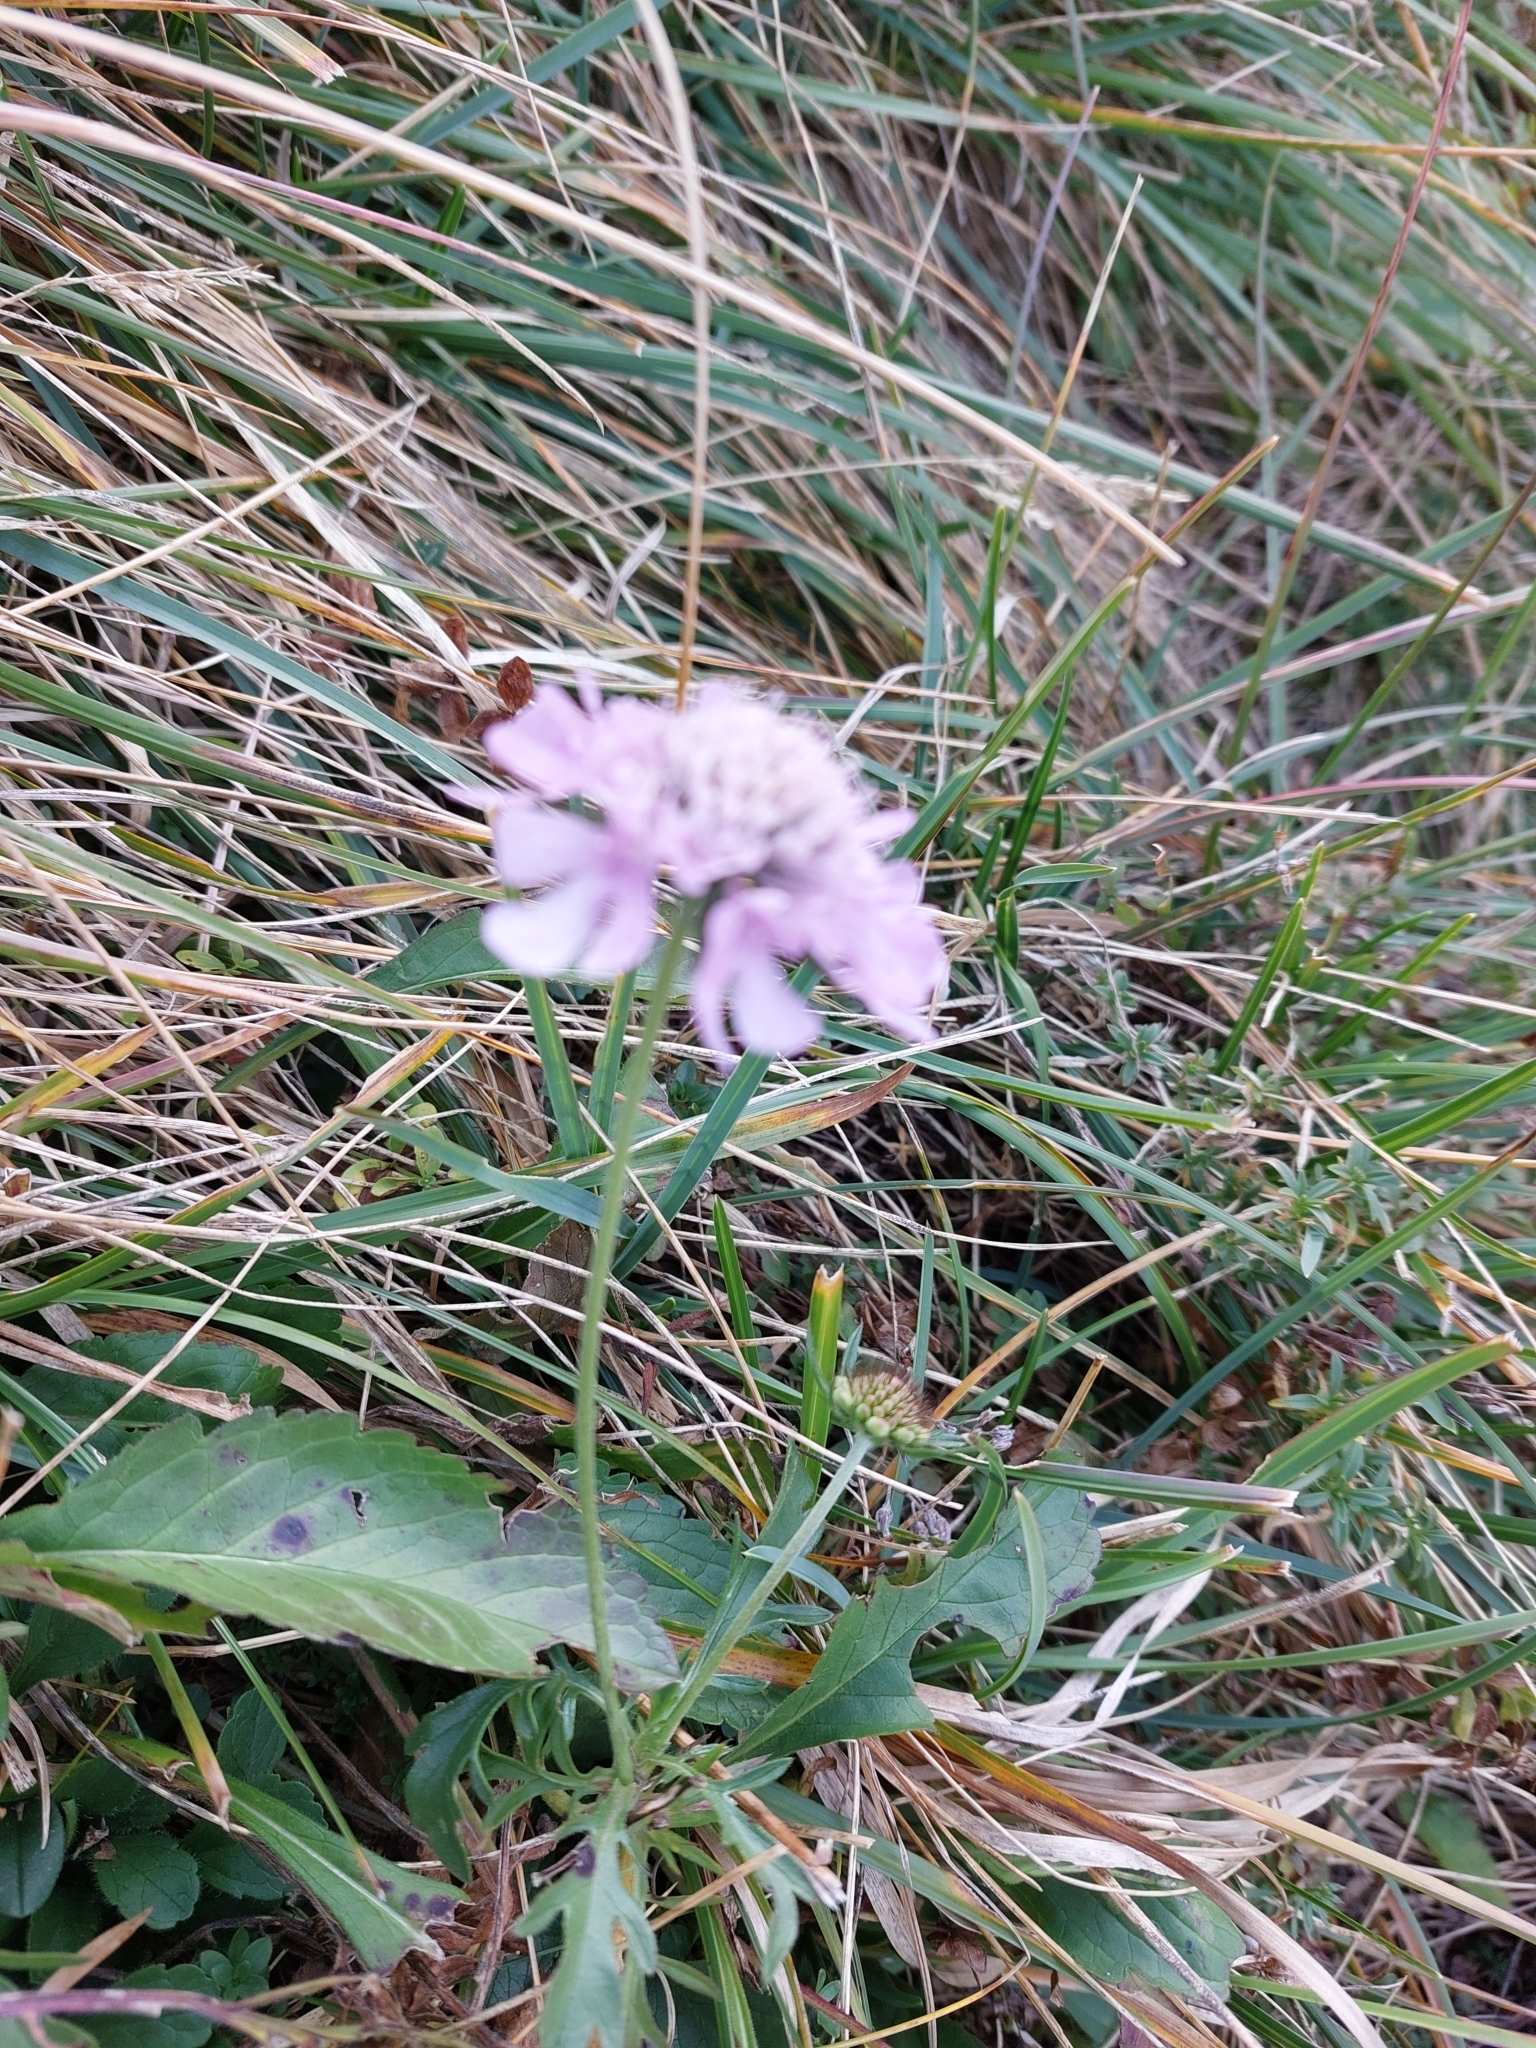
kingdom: Plantae
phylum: Tracheophyta
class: Magnoliopsida
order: Dipsacales
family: Caprifoliaceae
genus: Knautia
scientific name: Knautia arvensis
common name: Field scabiosa
